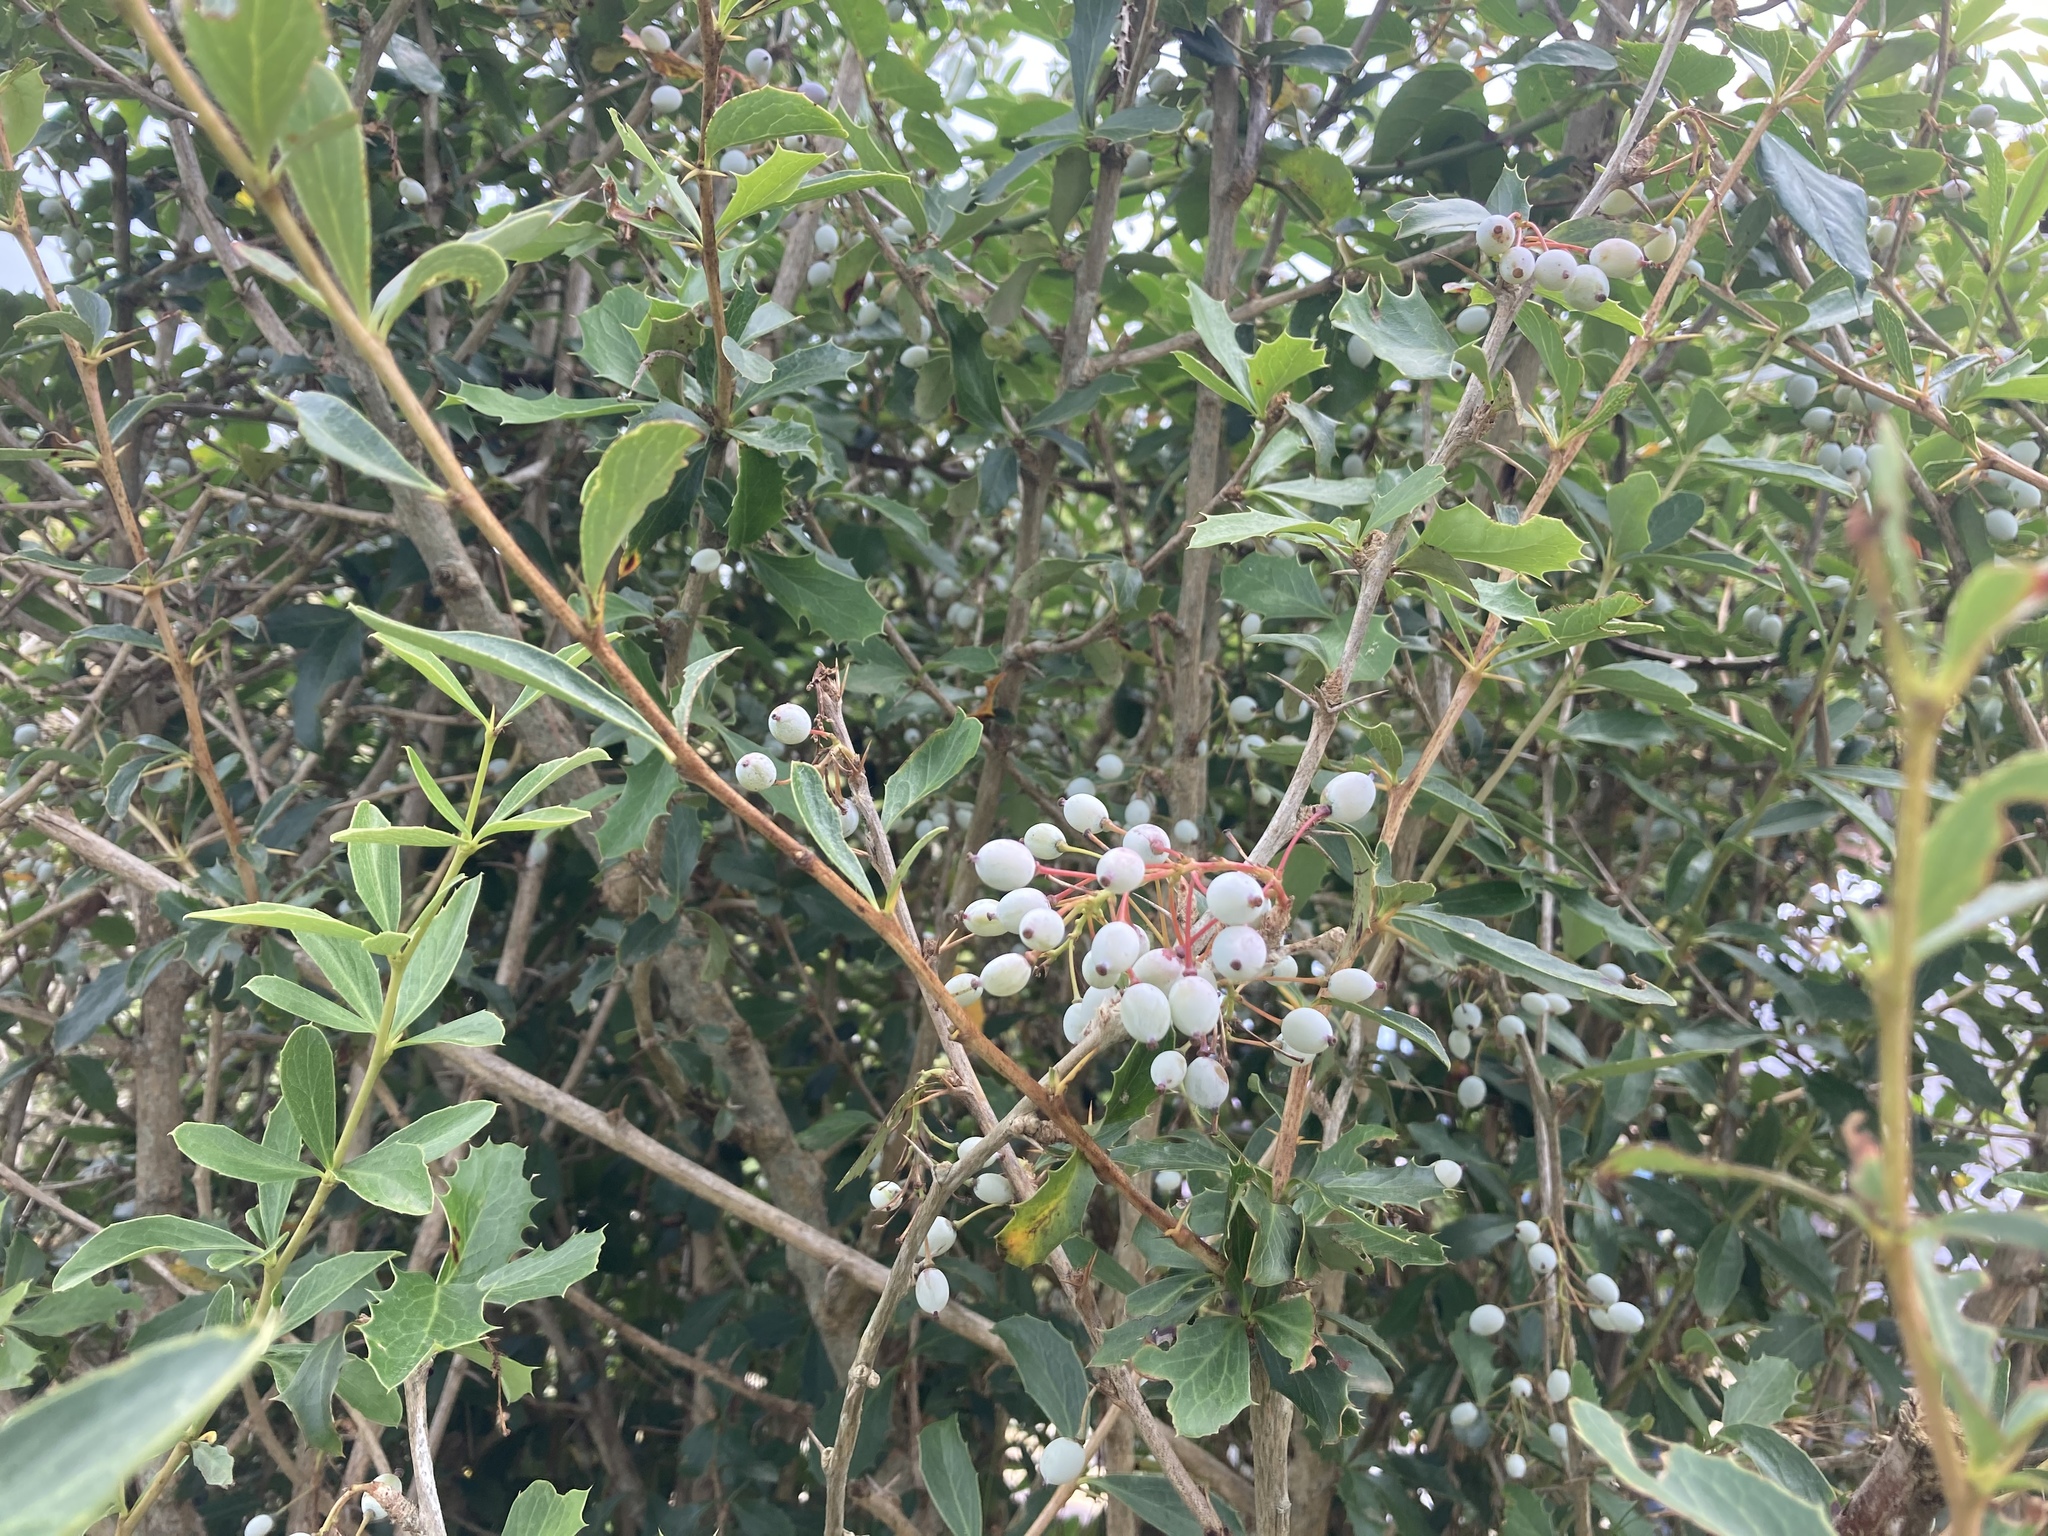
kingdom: Plantae
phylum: Tracheophyta
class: Magnoliopsida
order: Ranunculales
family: Berberidaceae
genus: Berberis
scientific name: Berberis glaucocarpa
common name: Great barberry
